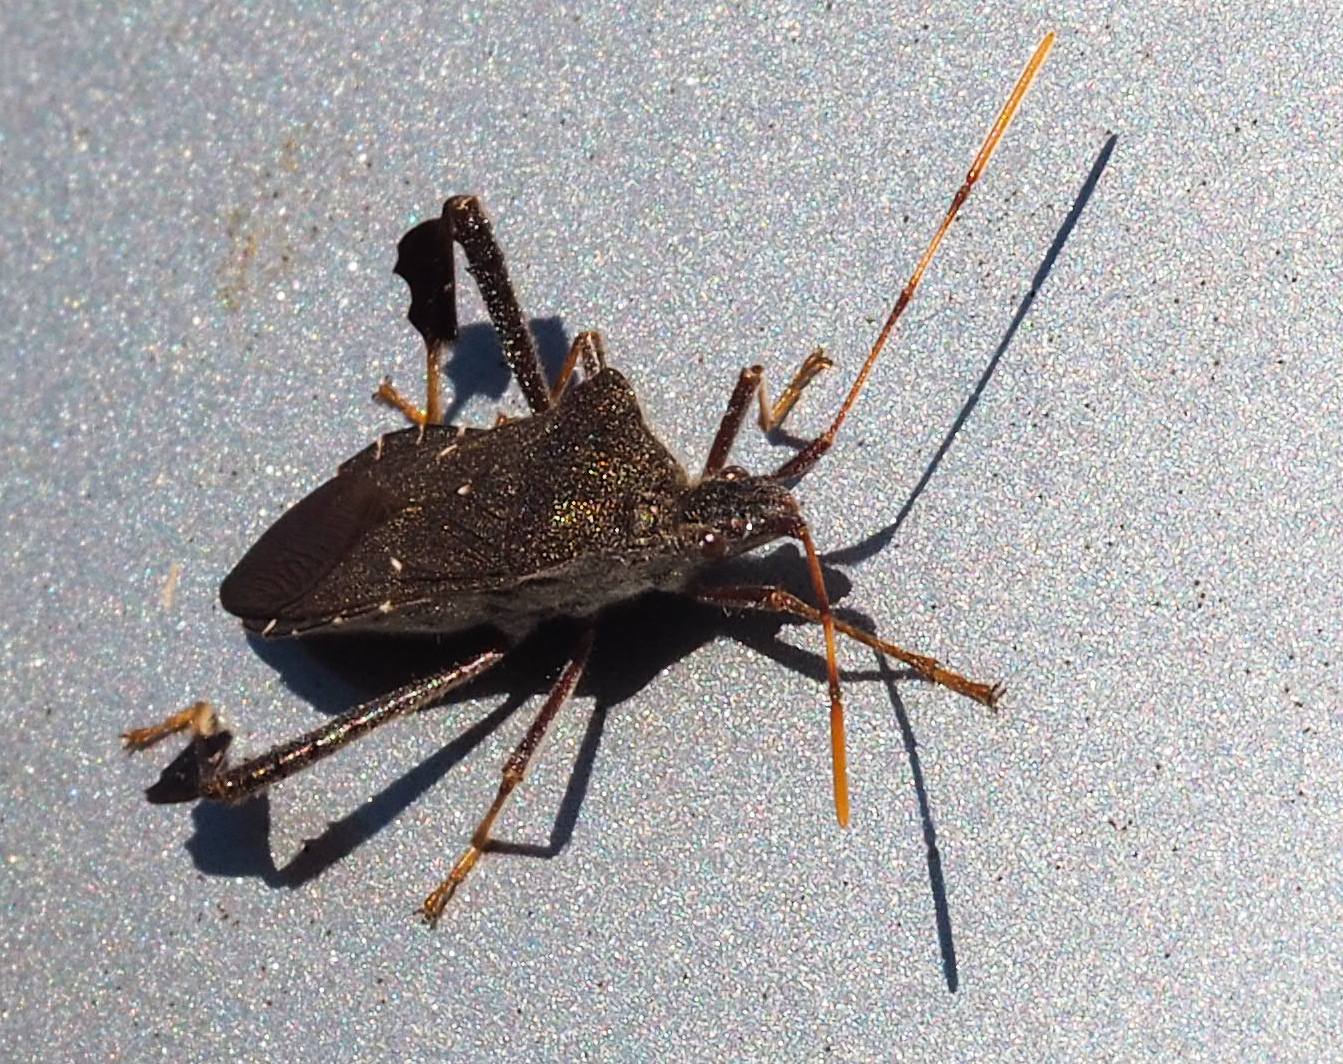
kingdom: Animalia
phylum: Arthropoda
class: Insecta
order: Hemiptera
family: Coreidae
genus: Leptoglossus
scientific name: Leptoglossus oppositus
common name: Northern leaf-footed bug
